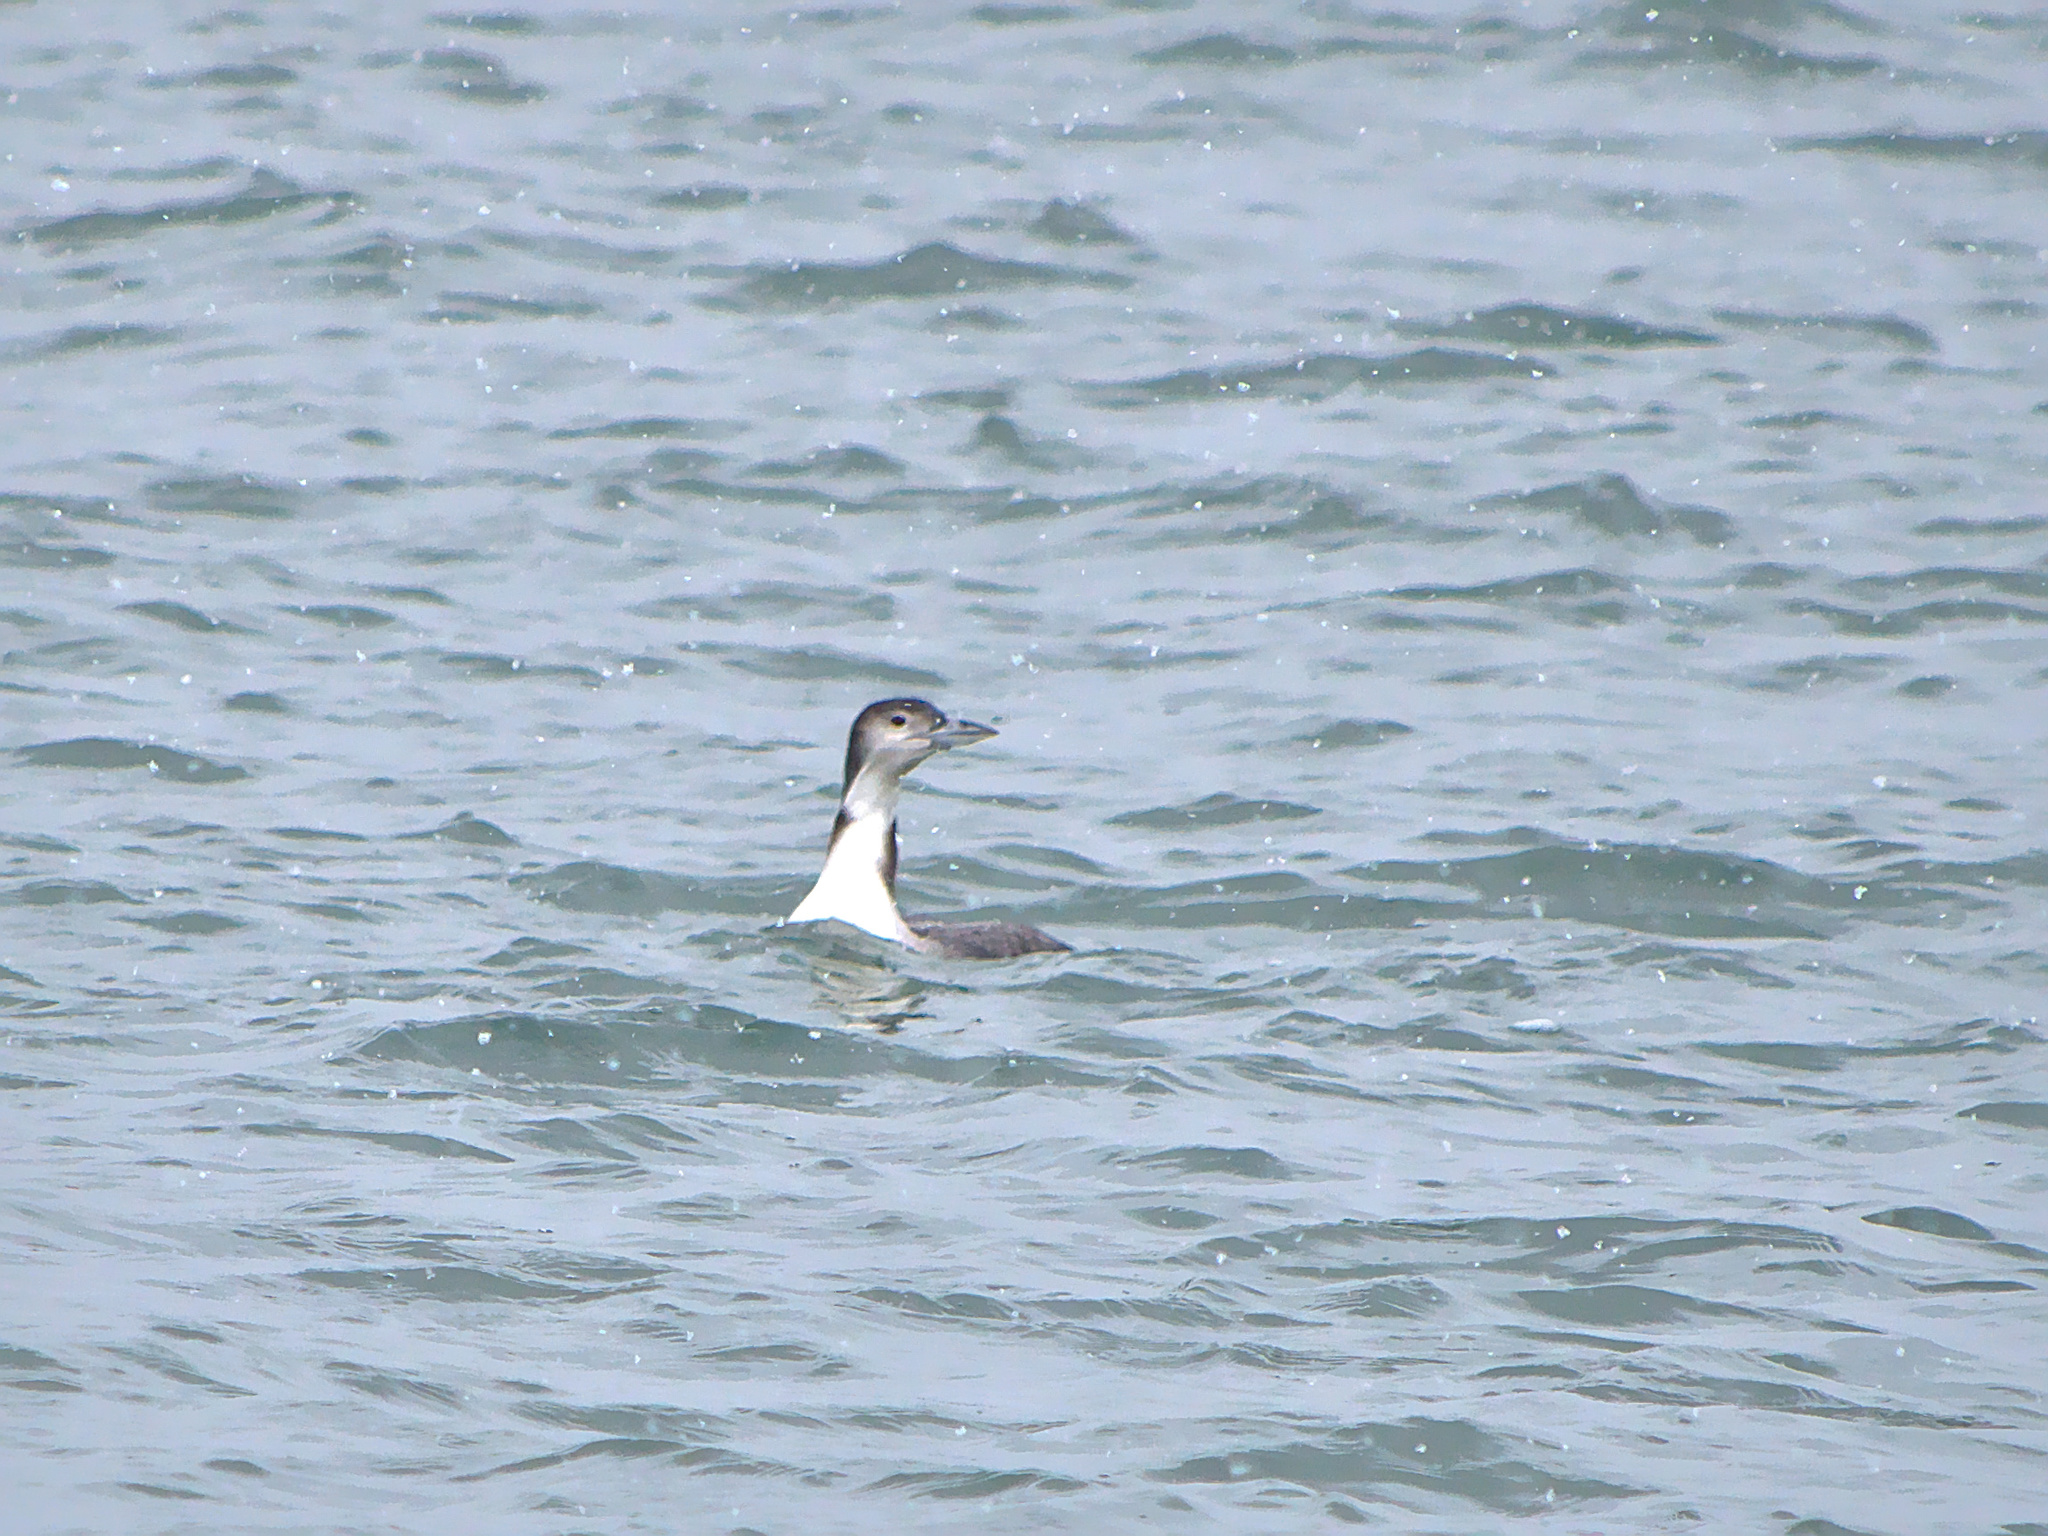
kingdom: Animalia
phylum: Chordata
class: Aves
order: Gaviiformes
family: Gaviidae
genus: Gavia
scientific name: Gavia immer
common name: Common loon
